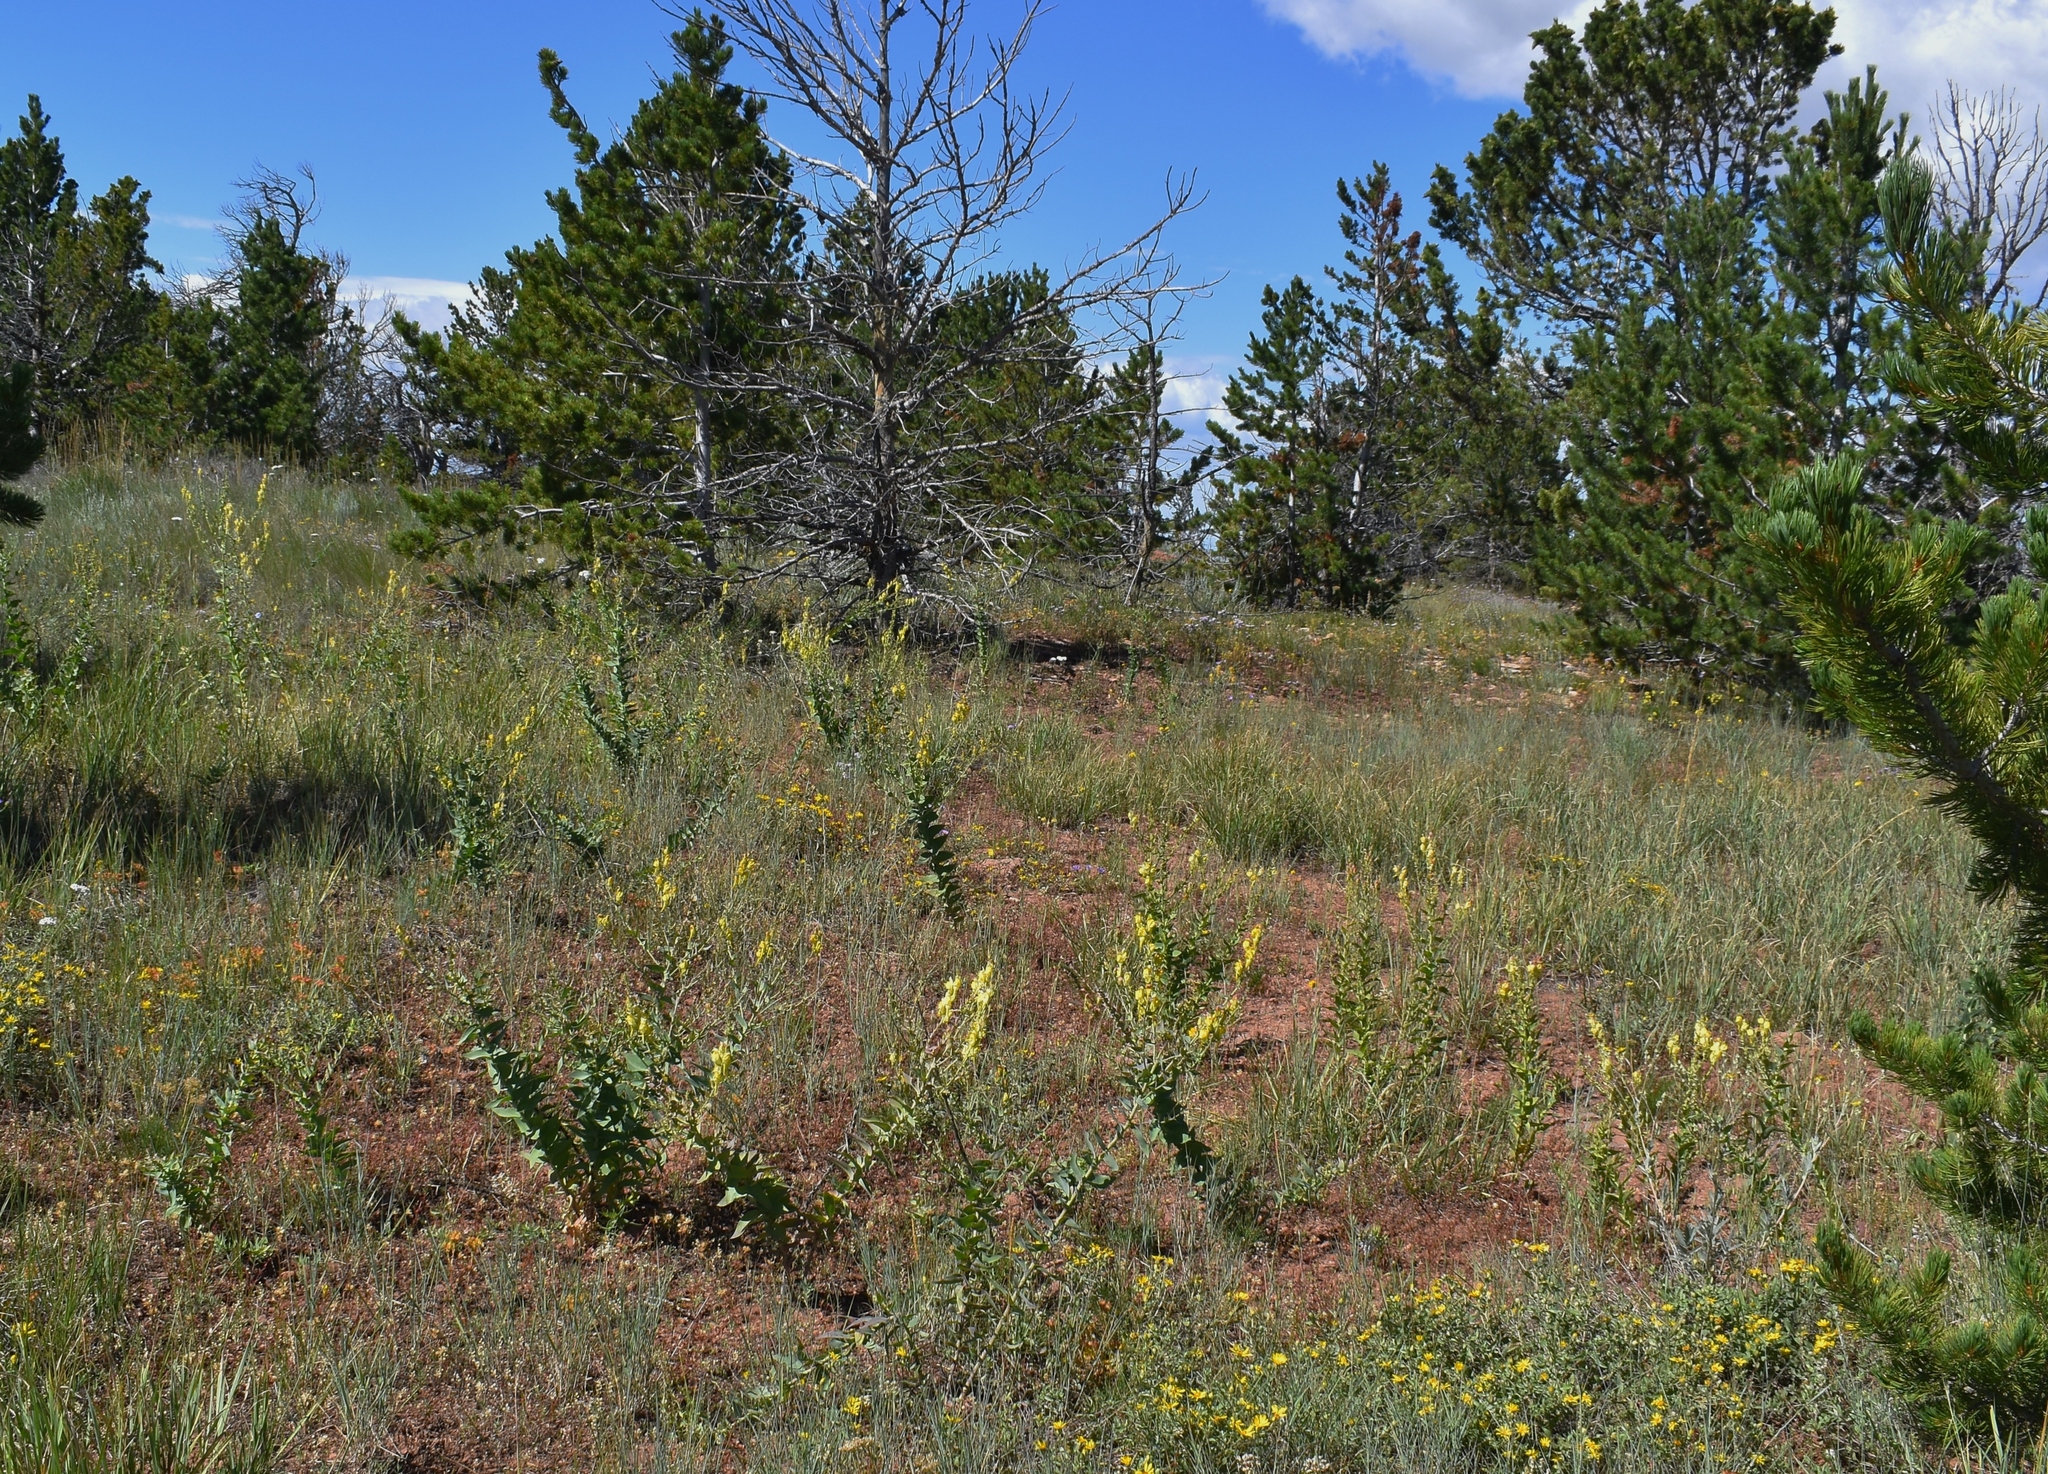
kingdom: Plantae
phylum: Tracheophyta
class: Magnoliopsida
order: Lamiales
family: Plantaginaceae
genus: Linaria
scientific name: Linaria dalmatica
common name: Dalmatian toadflax
